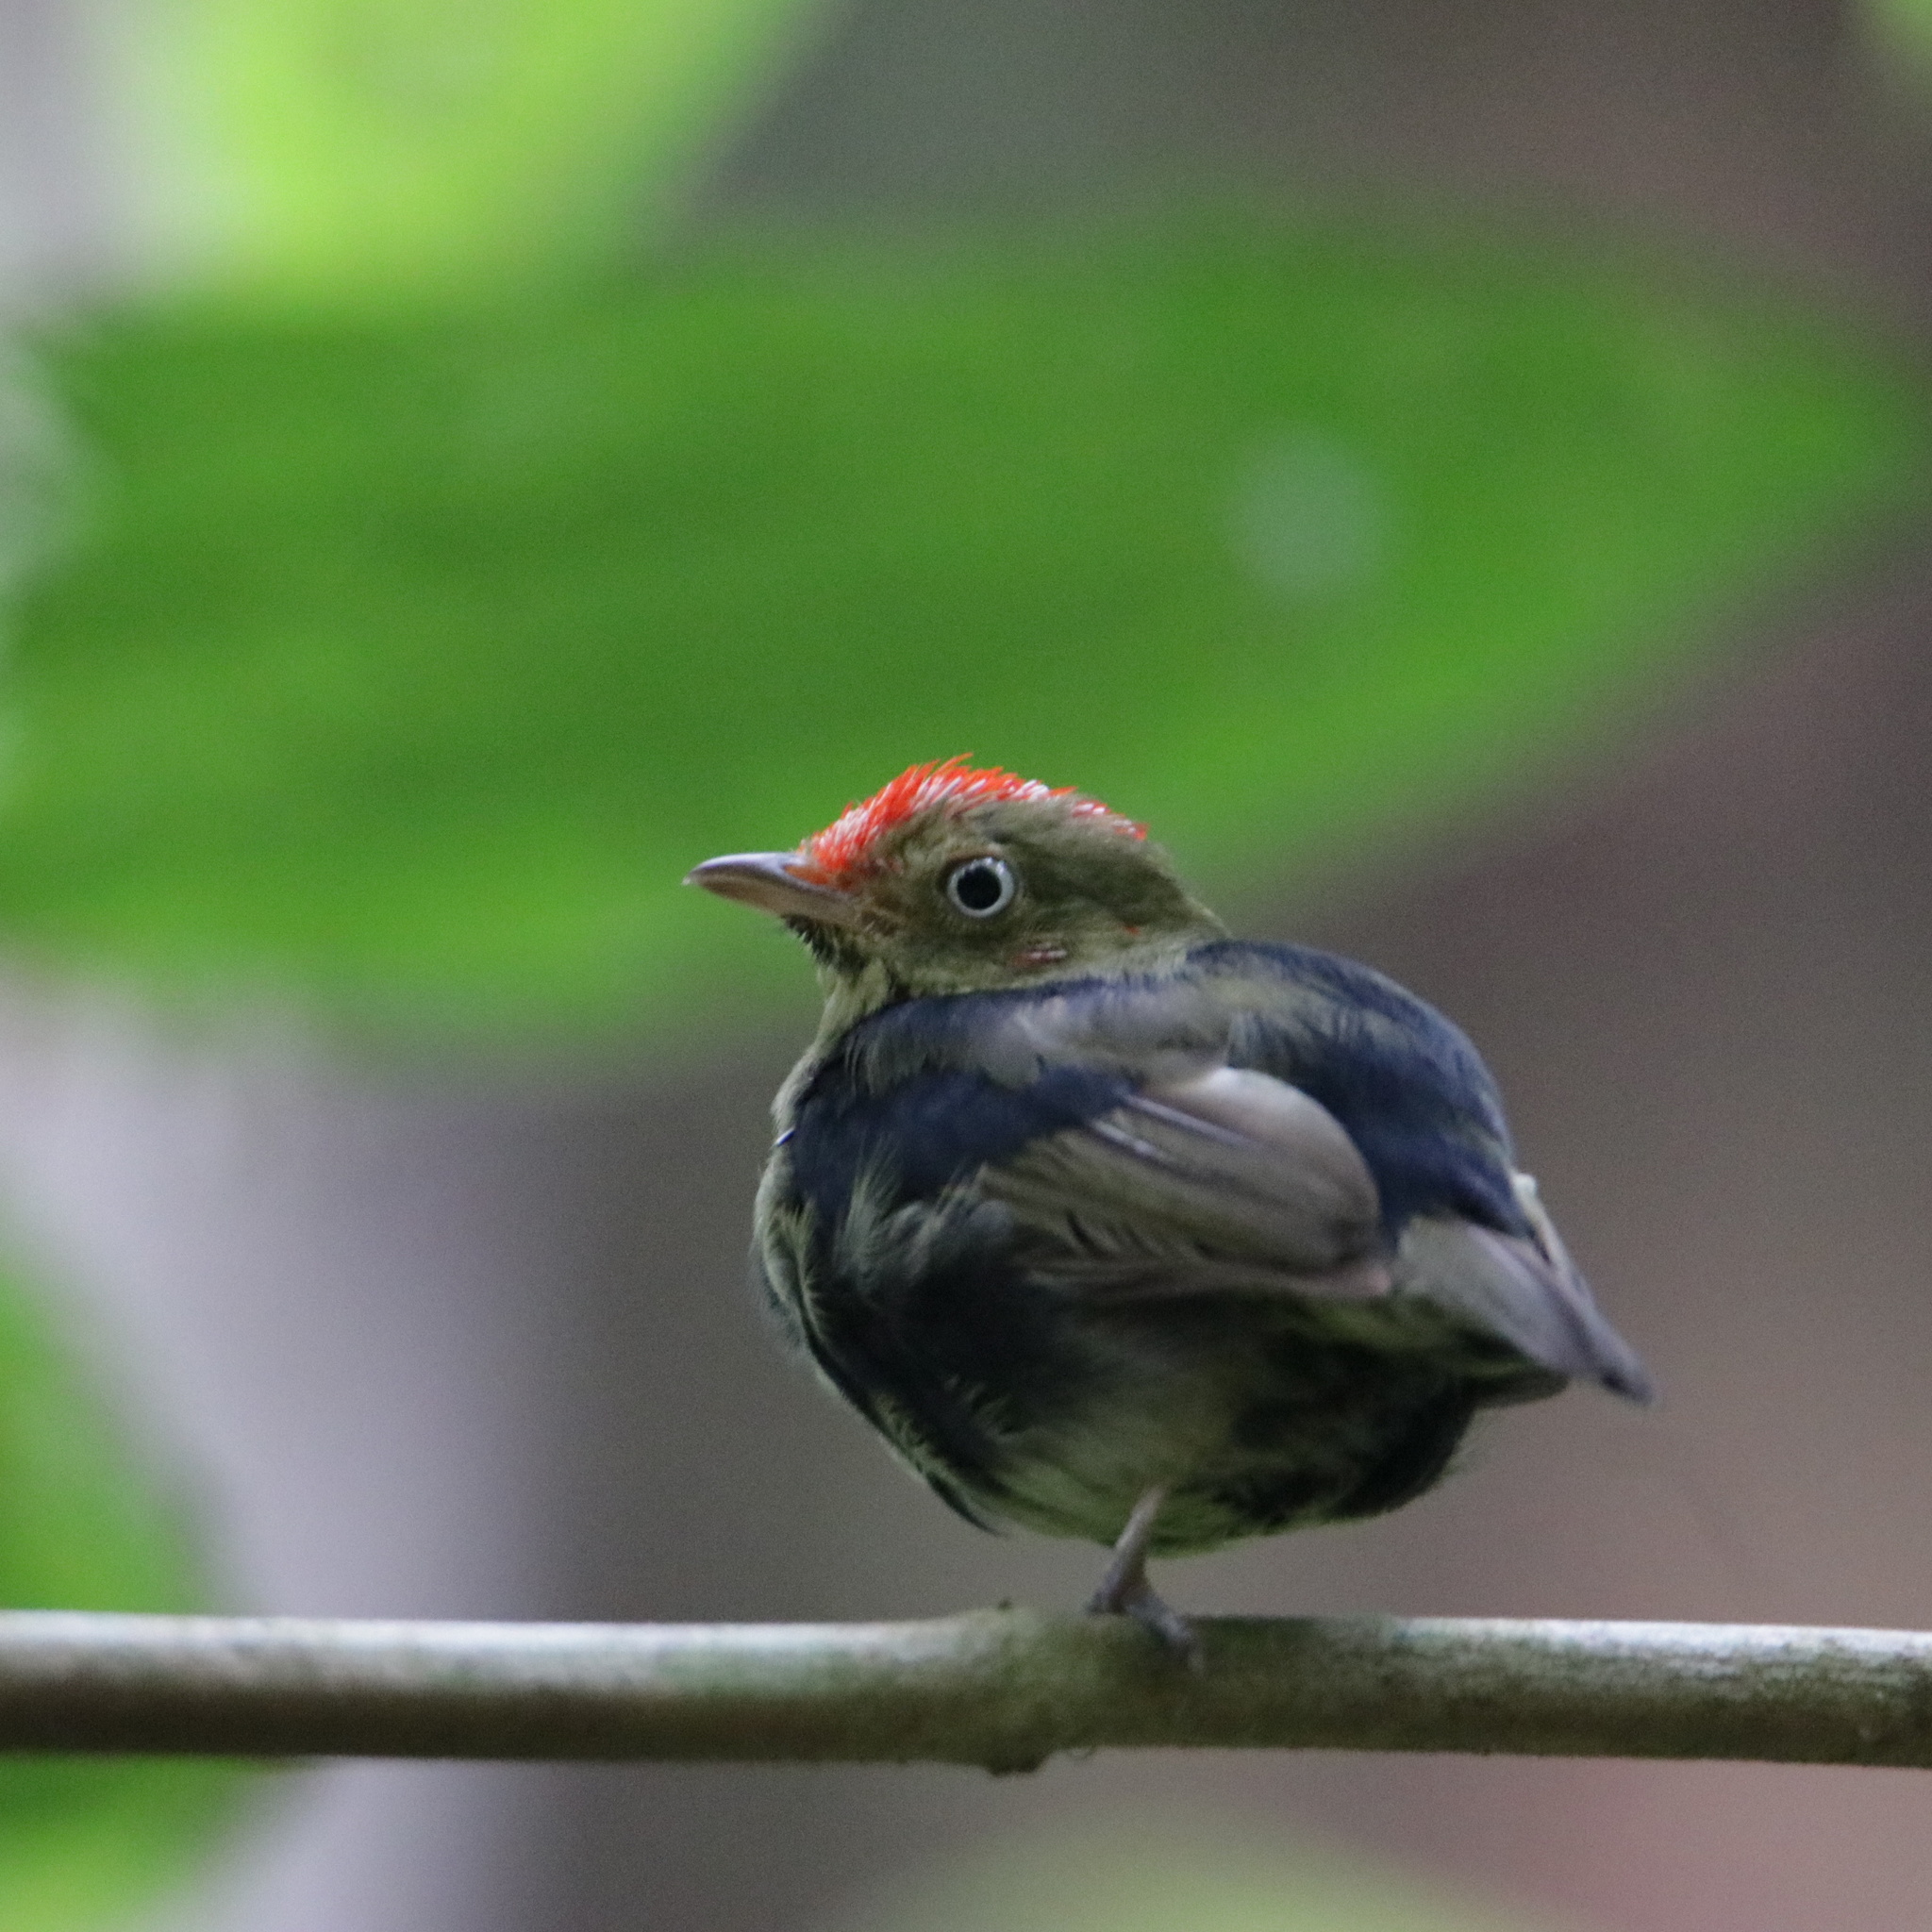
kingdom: Animalia
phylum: Chordata
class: Aves
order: Passeriformes
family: Pipridae
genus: Pipra
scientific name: Pipra mentalis
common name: Red-capped manakin
